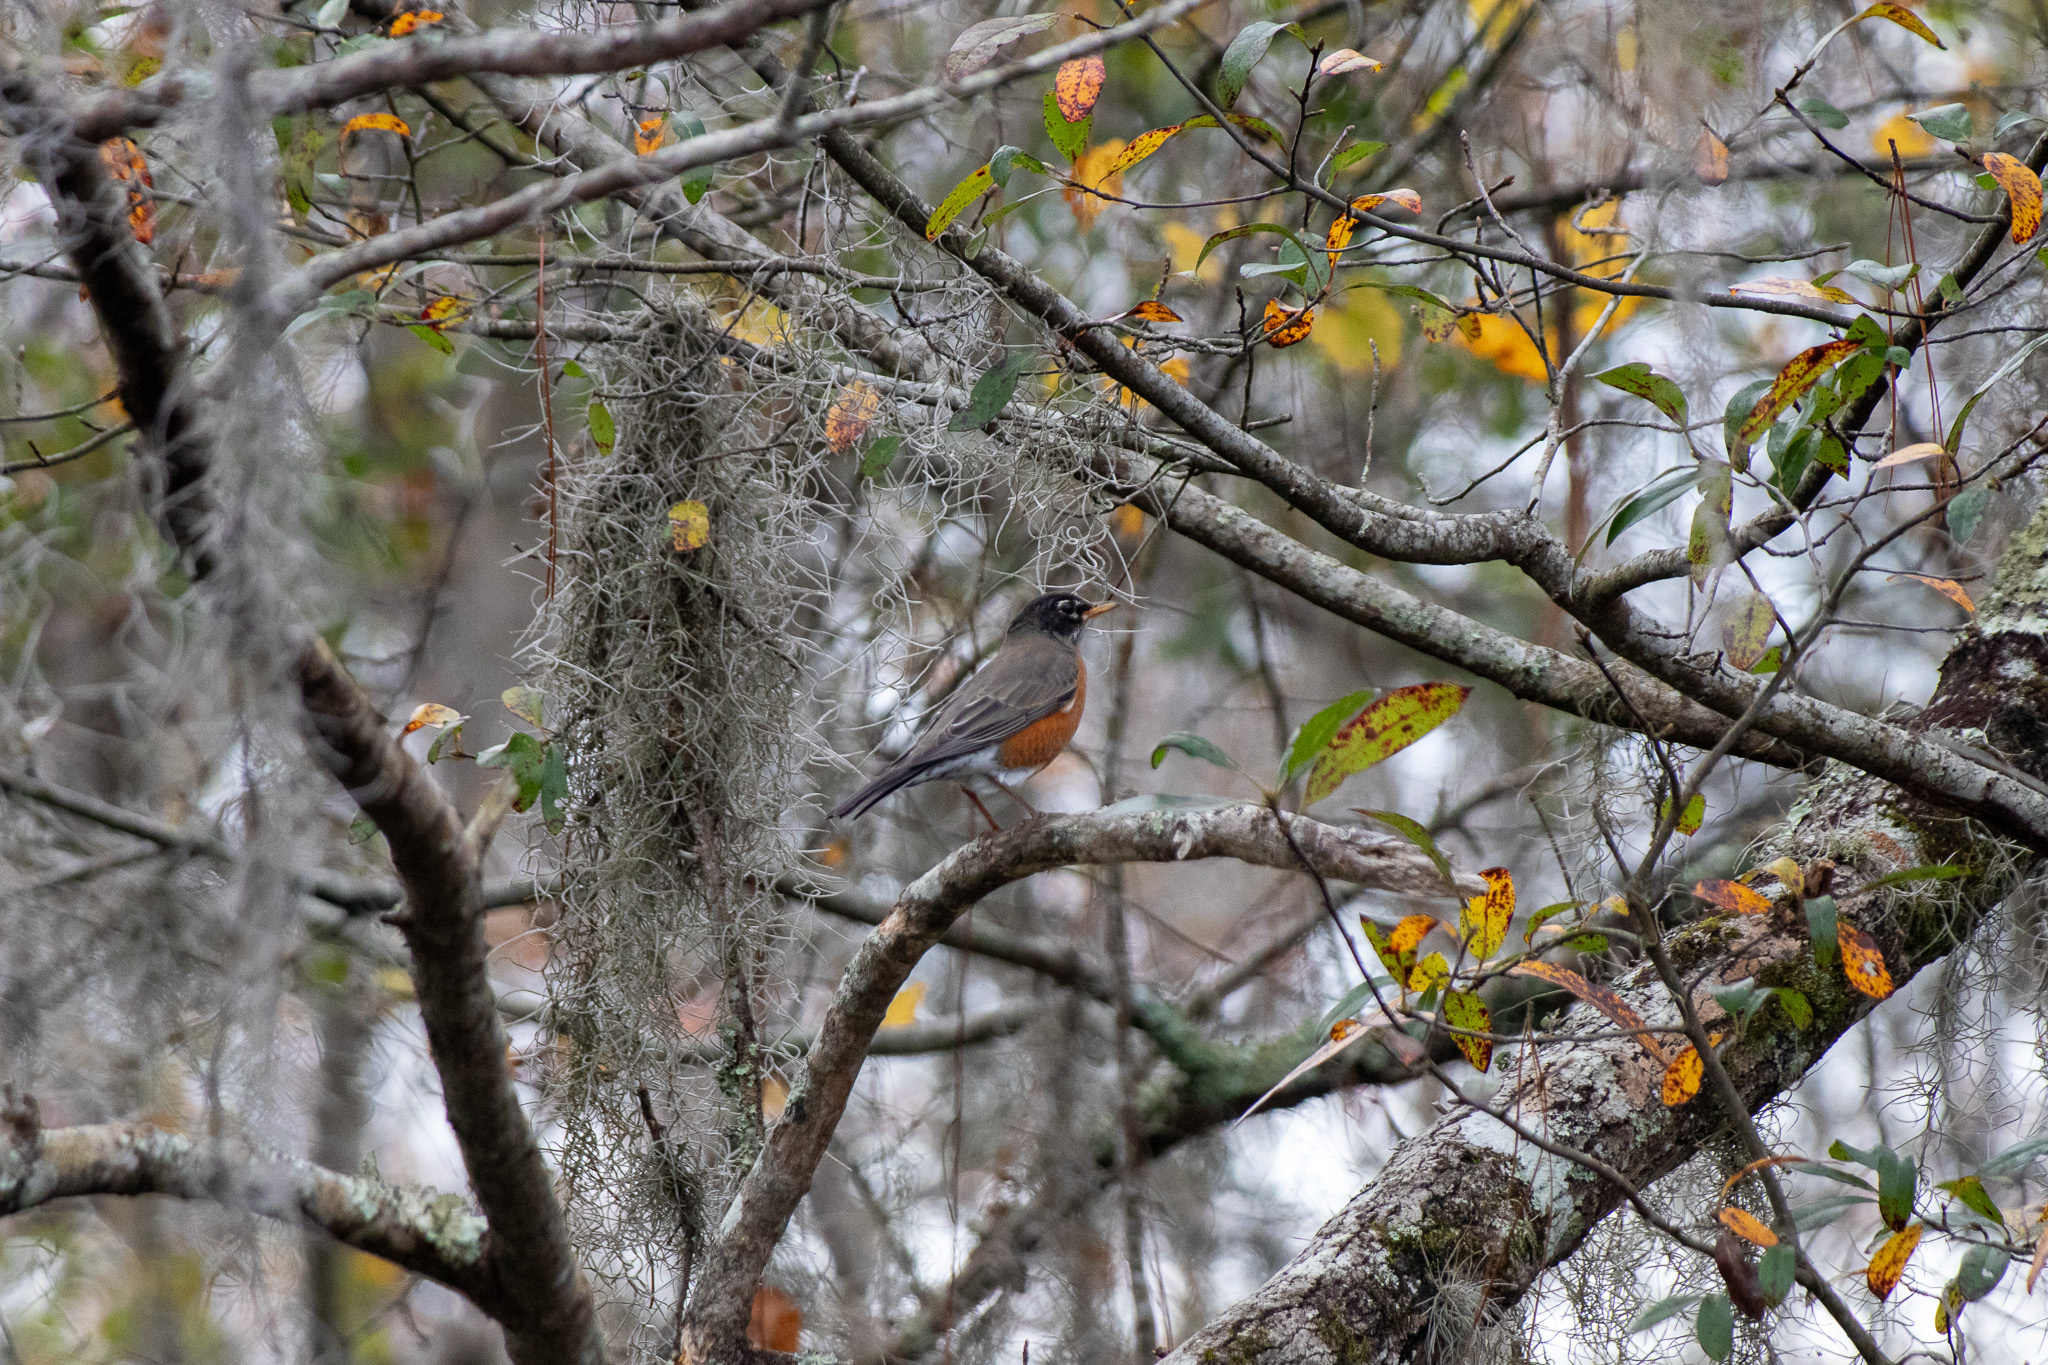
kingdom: Animalia
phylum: Chordata
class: Aves
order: Passeriformes
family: Turdidae
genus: Turdus
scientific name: Turdus migratorius
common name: American robin
